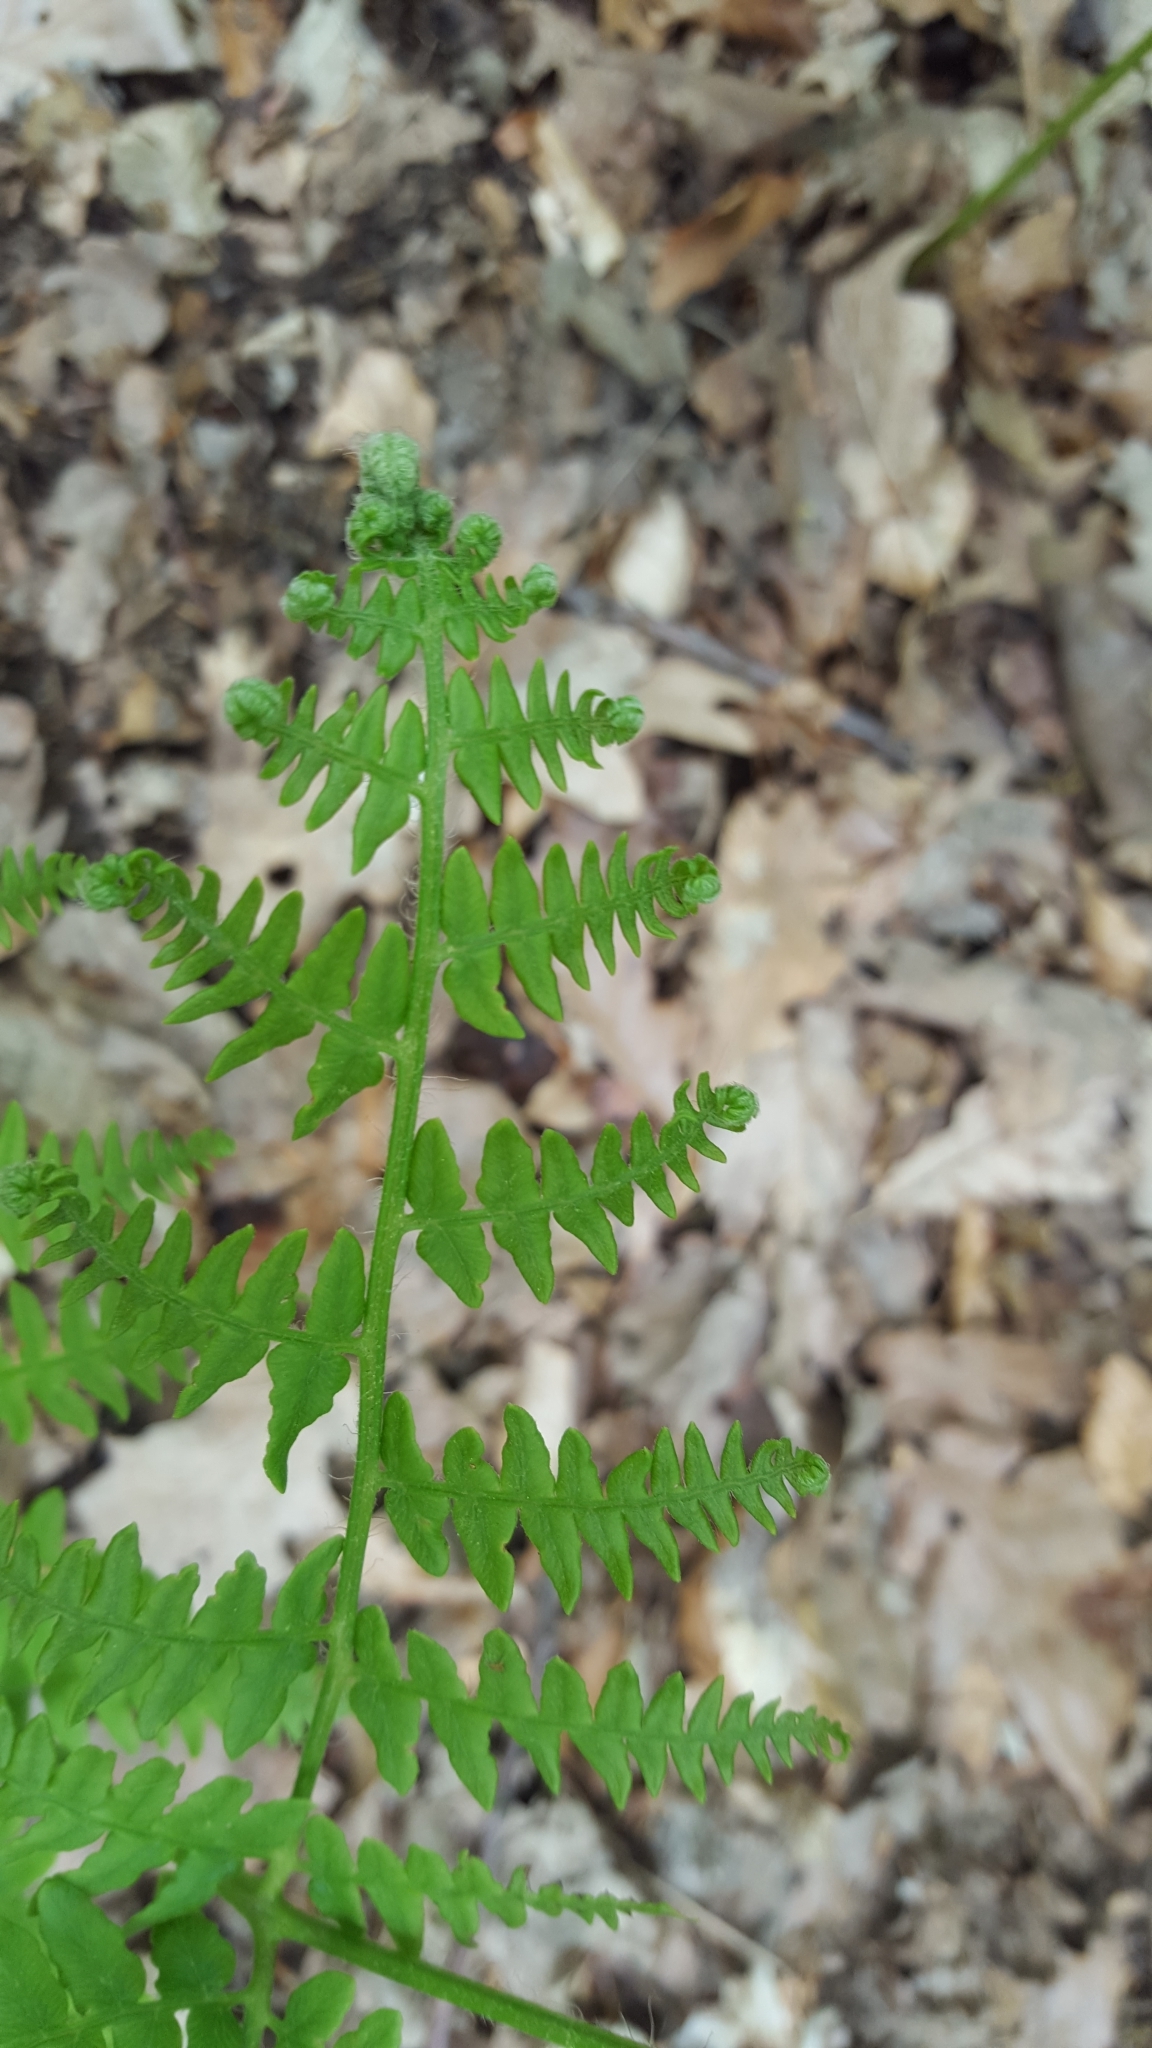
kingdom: Plantae
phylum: Tracheophyta
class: Polypodiopsida
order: Polypodiales
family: Dennstaedtiaceae
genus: Pteridium
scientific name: Pteridium aquilinum
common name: Bracken
